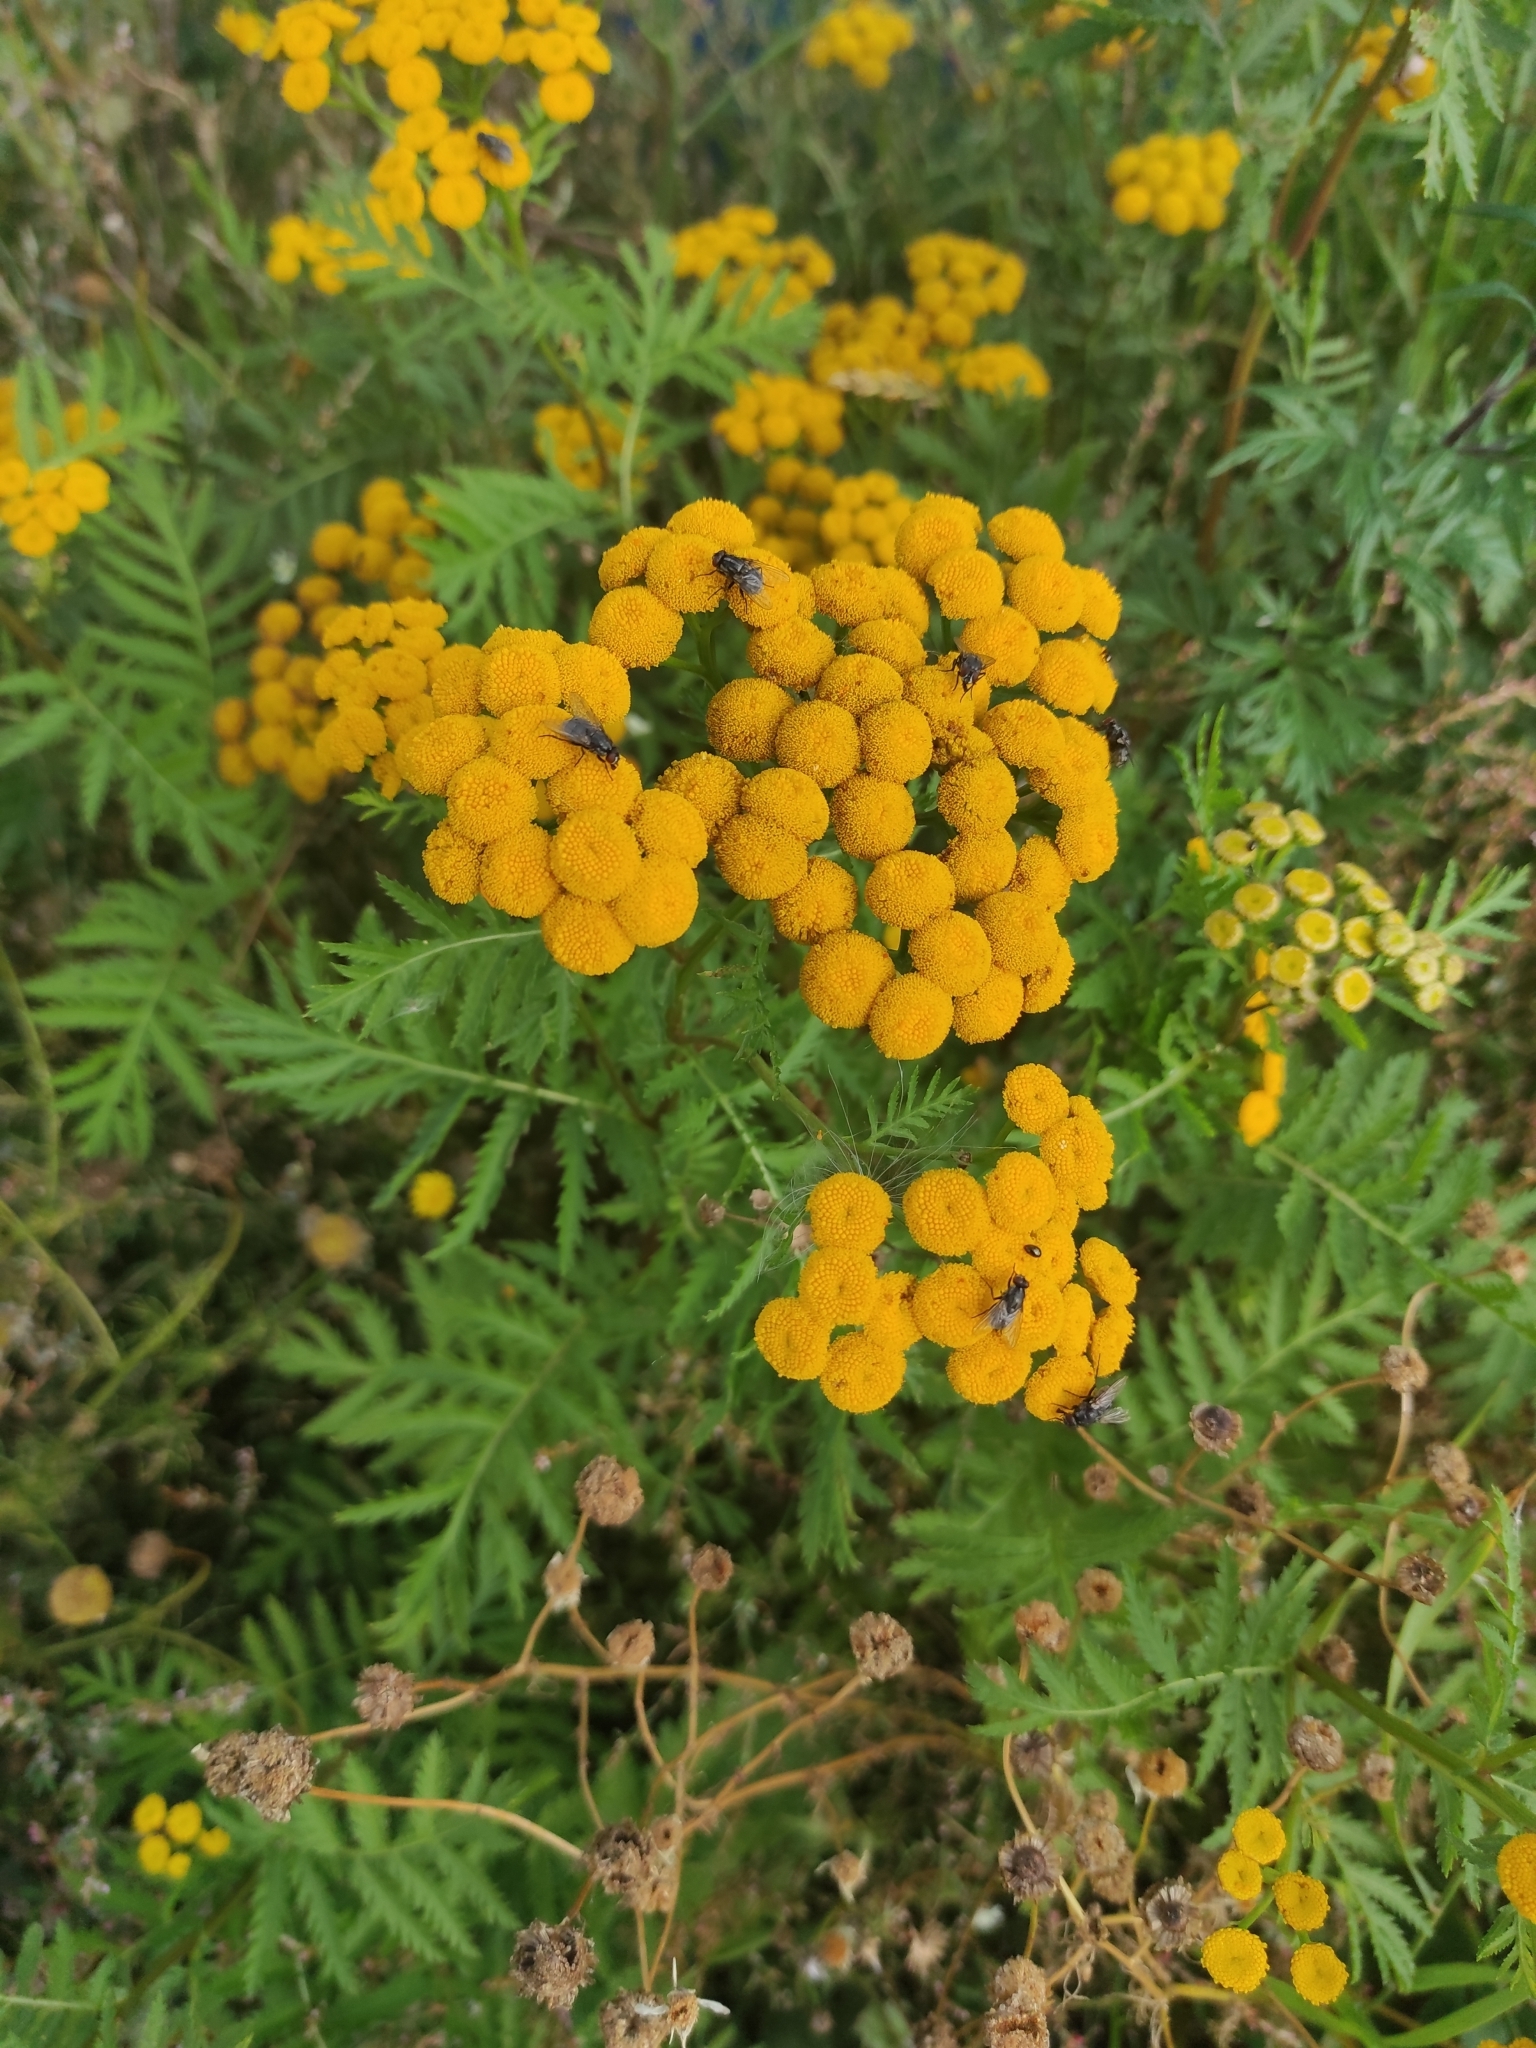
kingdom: Plantae
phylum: Tracheophyta
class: Magnoliopsida
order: Asterales
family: Asteraceae
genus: Tanacetum
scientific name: Tanacetum vulgare
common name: Common tansy
